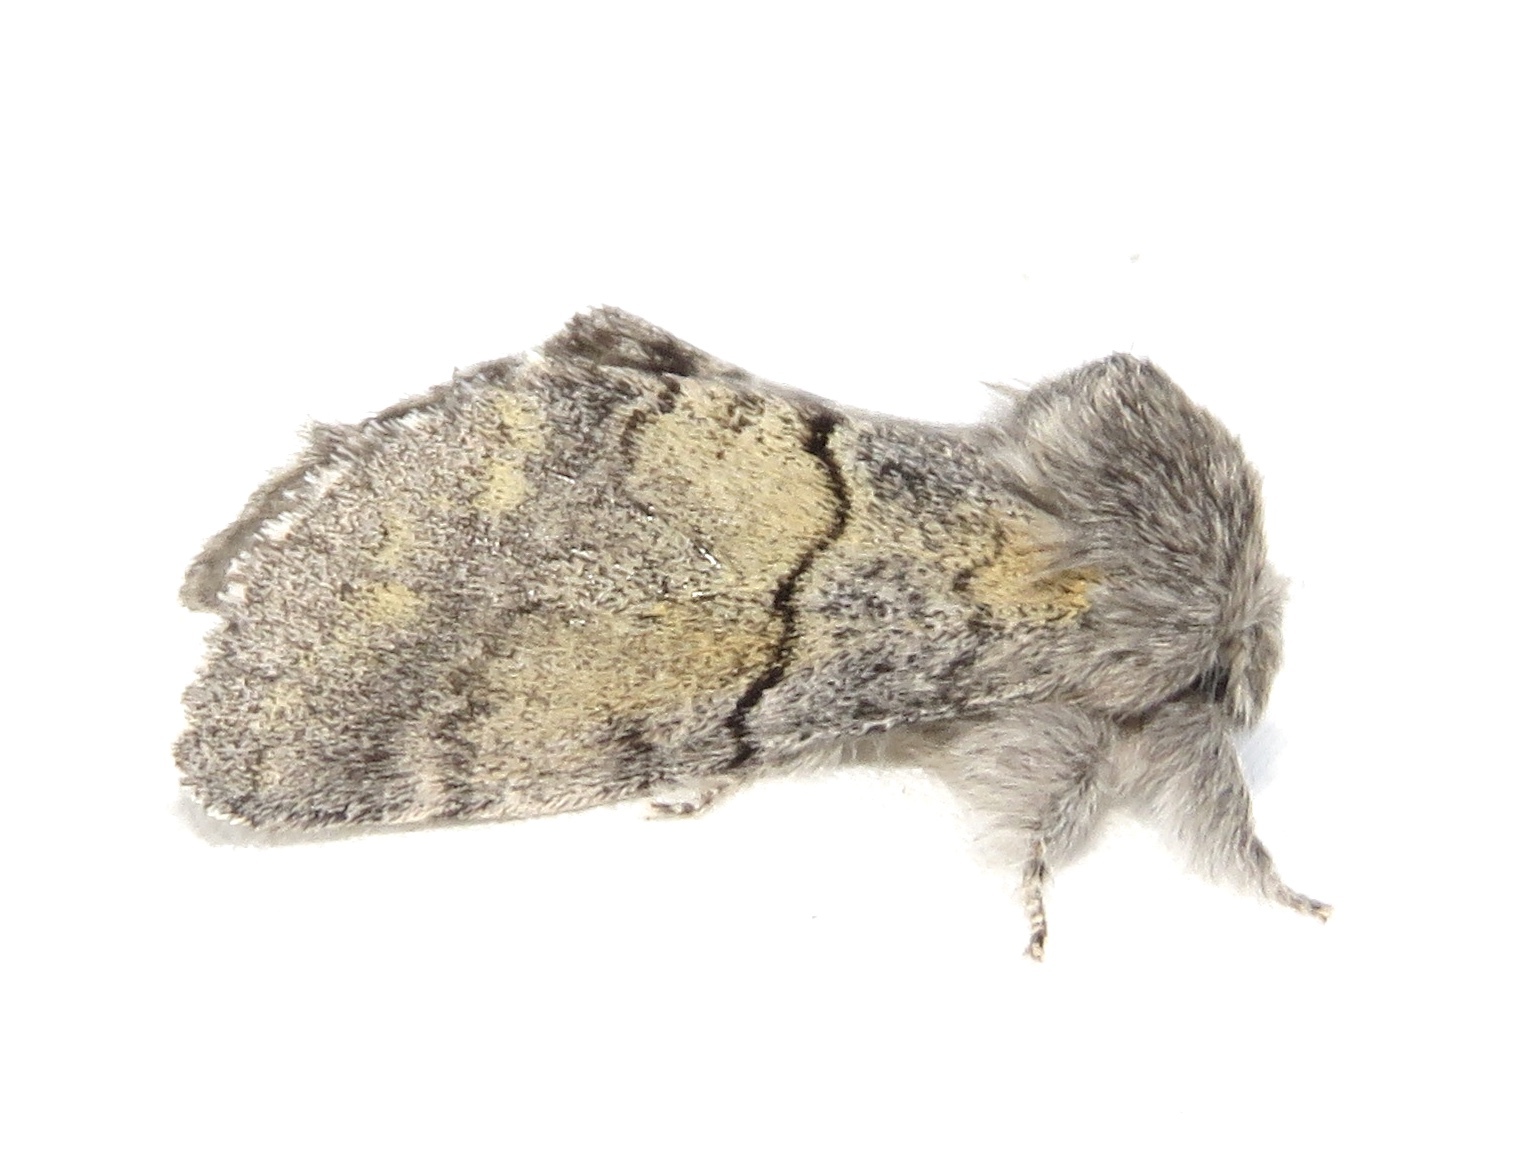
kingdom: Animalia
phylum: Arthropoda
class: Insecta
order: Lepidoptera
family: Notodontidae
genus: Gluphisia
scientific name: Gluphisia lintneri
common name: Lintner's gluphisia moth
